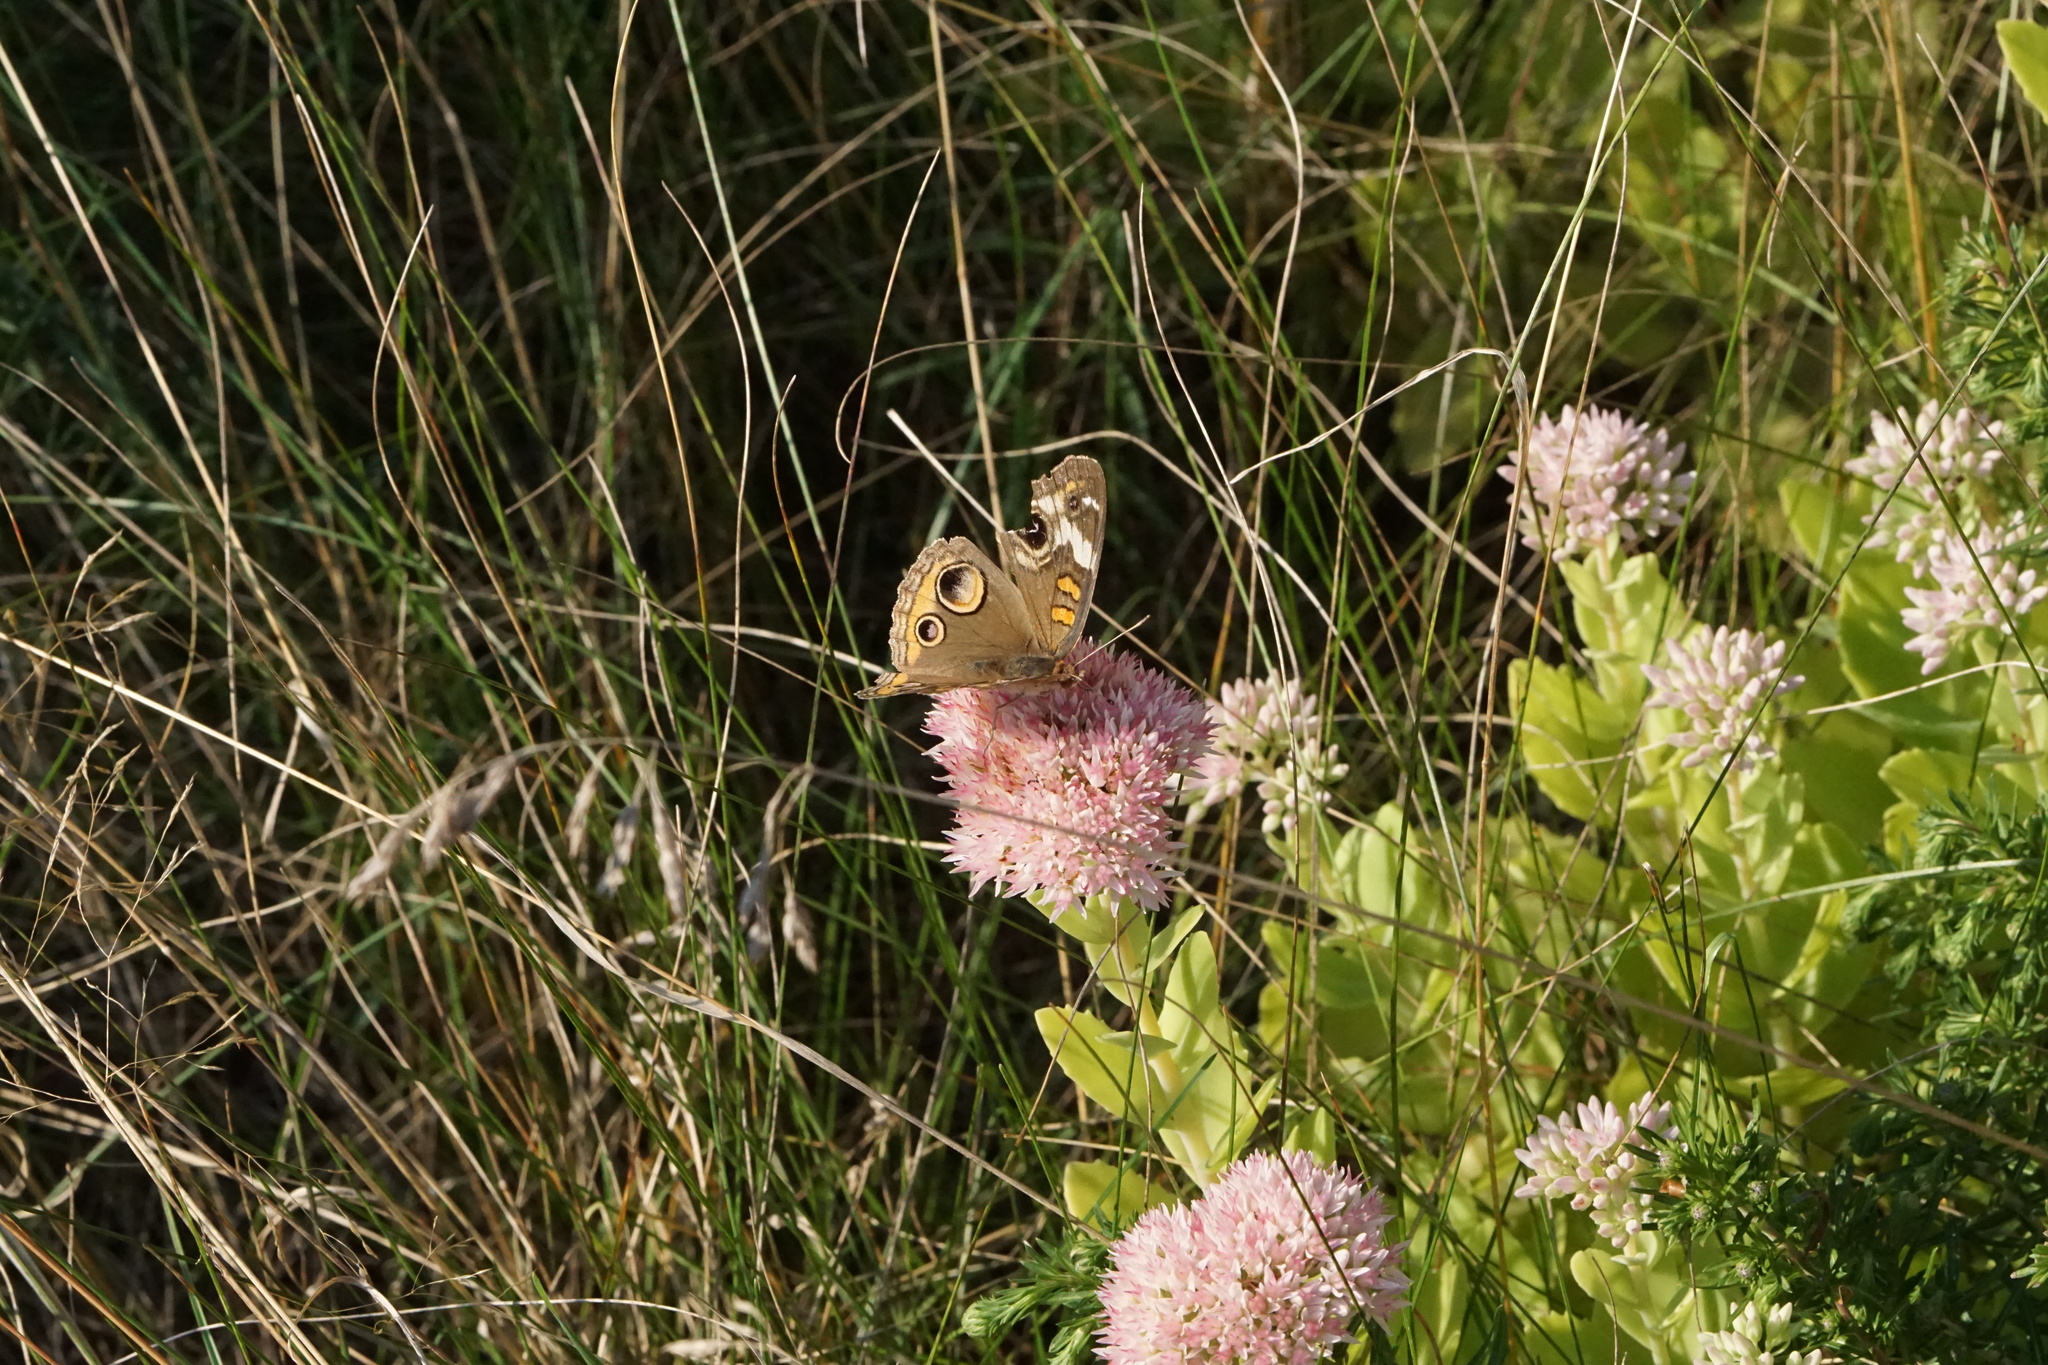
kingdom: Animalia
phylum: Arthropoda
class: Insecta
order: Lepidoptera
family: Nymphalidae
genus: Junonia
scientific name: Junonia coenia
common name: Common buckeye
